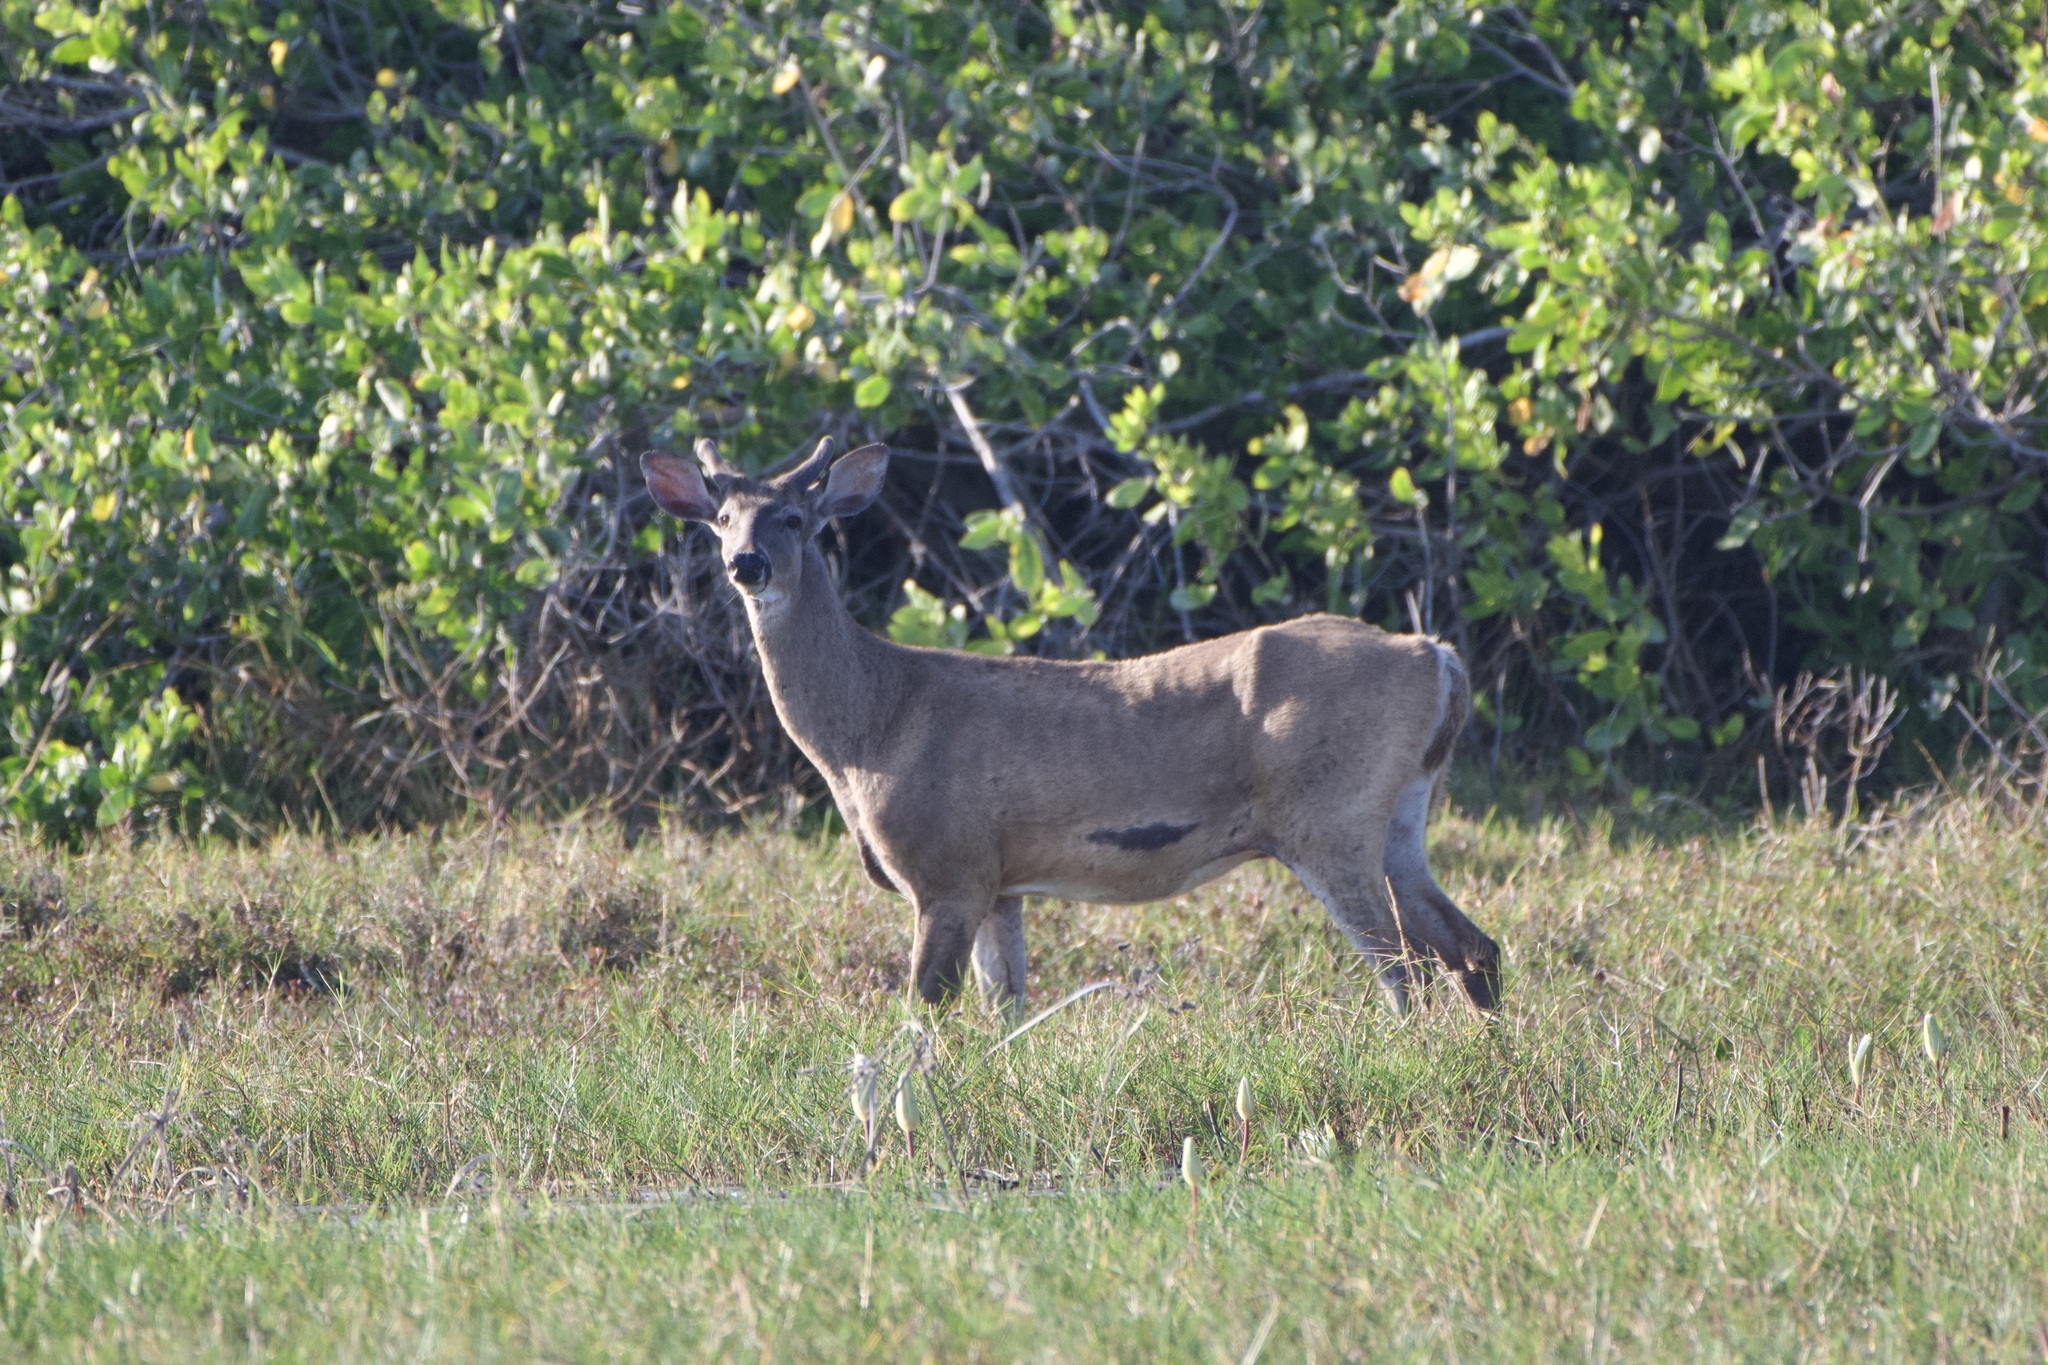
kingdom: Animalia
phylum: Chordata
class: Mammalia
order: Artiodactyla
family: Cervidae
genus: Odocoileus
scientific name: Odocoileus virginianus
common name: White-tailed deer
